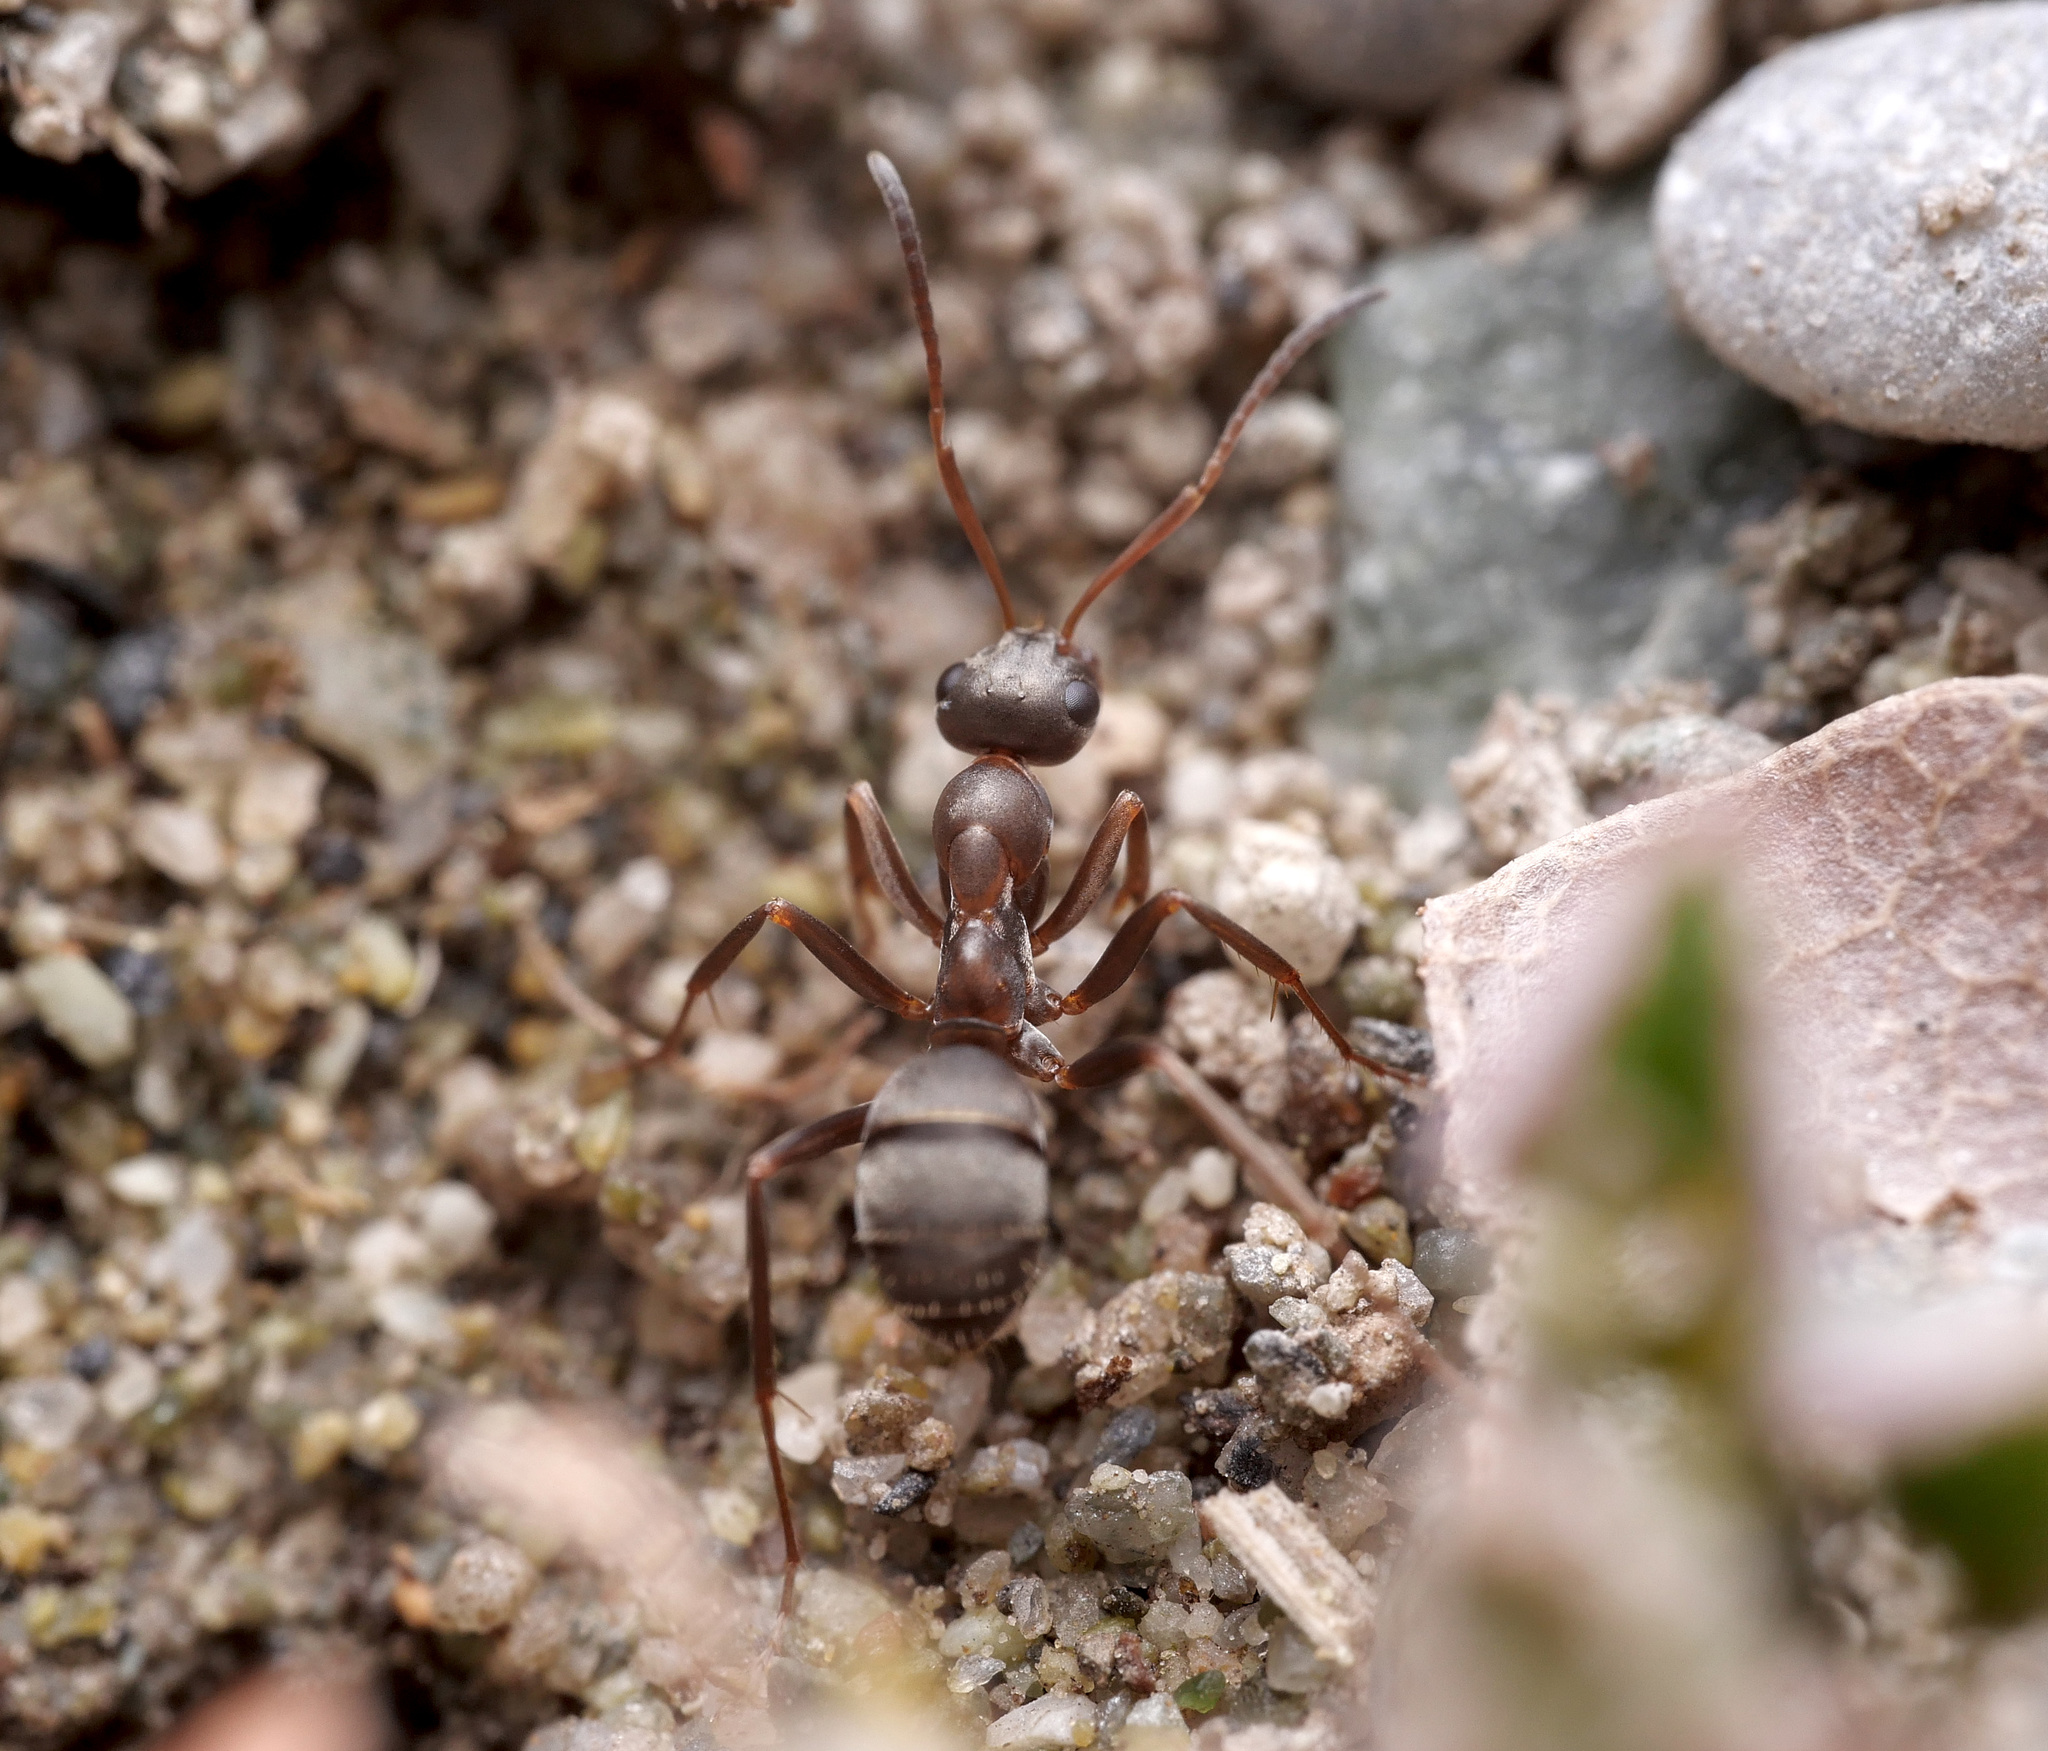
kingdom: Animalia
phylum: Arthropoda
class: Insecta
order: Hymenoptera
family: Formicidae
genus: Formica
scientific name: Formica cunicularia
